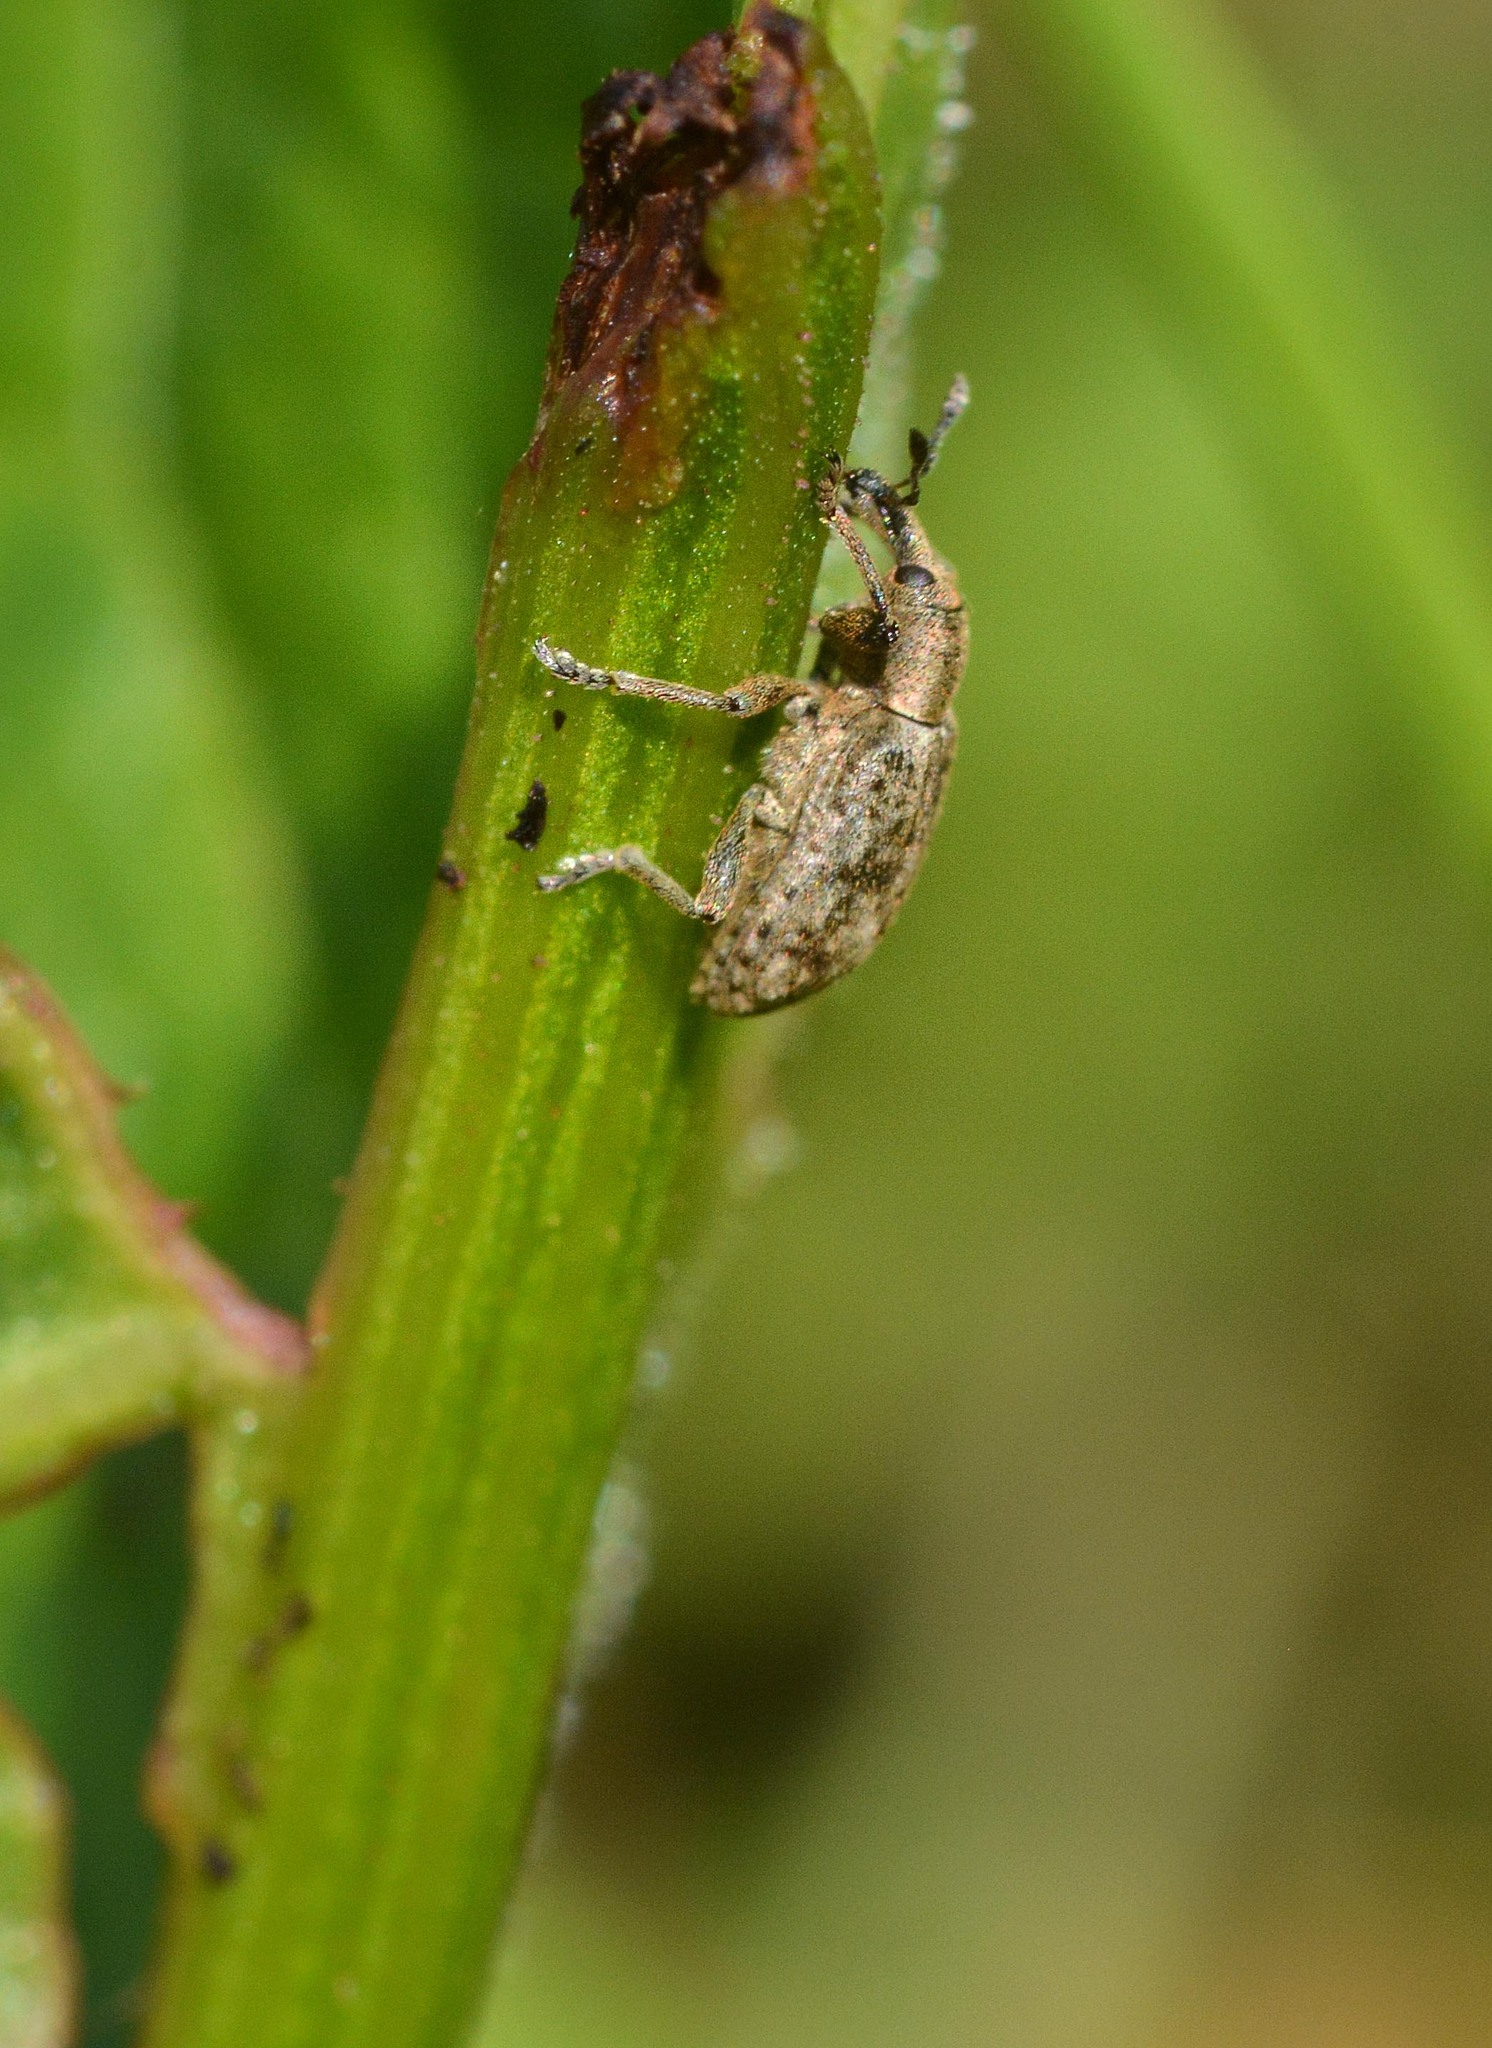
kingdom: Animalia
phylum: Arthropoda
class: Insecta
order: Coleoptera
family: Curculionidae
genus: Hypera
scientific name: Hypera rumicis
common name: Weevil
